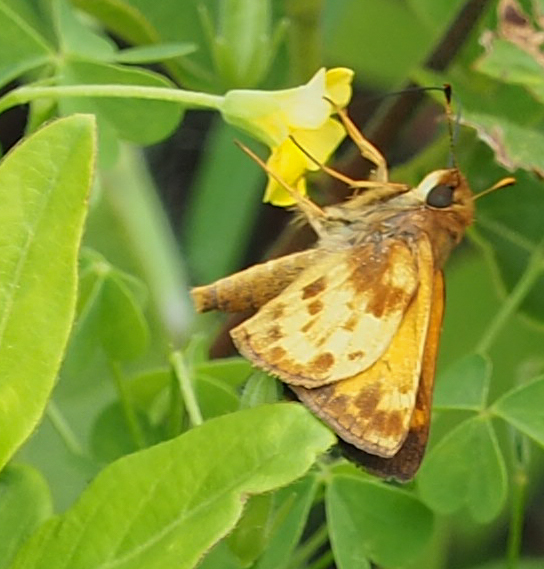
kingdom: Animalia
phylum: Arthropoda
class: Insecta
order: Lepidoptera
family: Hesperiidae
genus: Lon
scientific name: Lon zabulon
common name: Zabulon skipper
